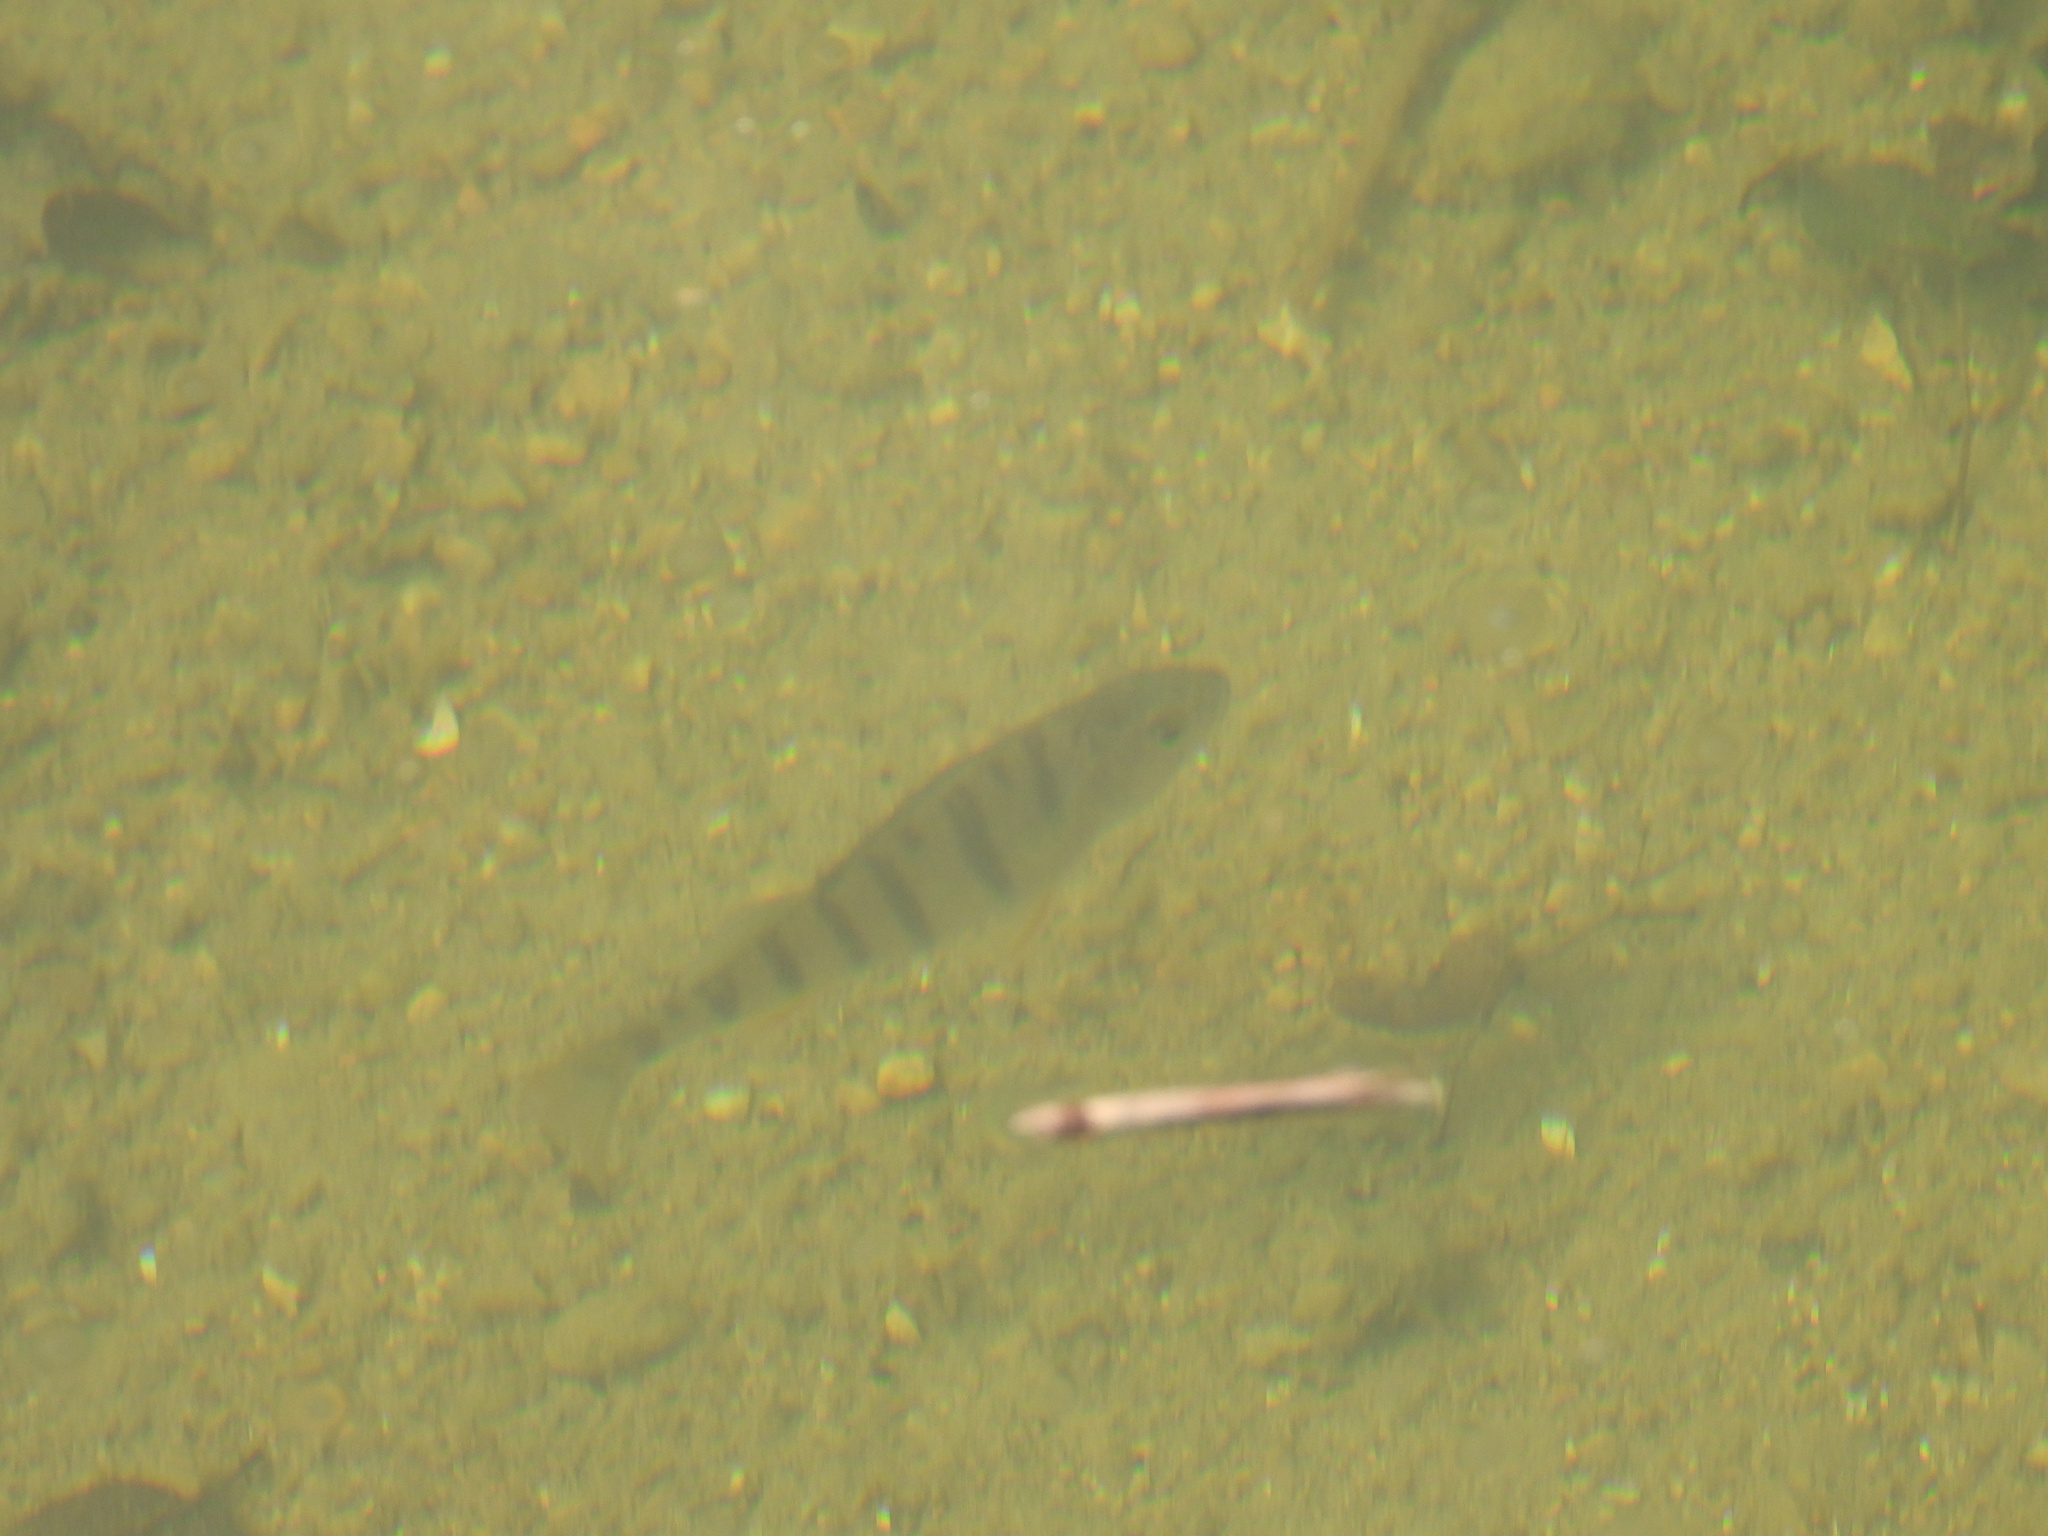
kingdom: Animalia
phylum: Chordata
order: Perciformes
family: Percidae
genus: Perca
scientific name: Perca fluviatilis
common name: Perch
